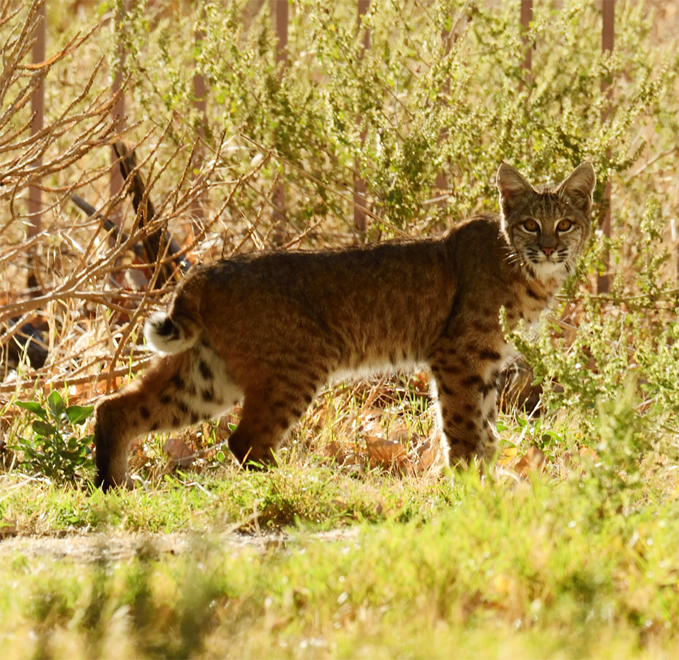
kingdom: Animalia
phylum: Chordata
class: Mammalia
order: Carnivora
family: Felidae
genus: Lynx
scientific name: Lynx rufus
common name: Bobcat
